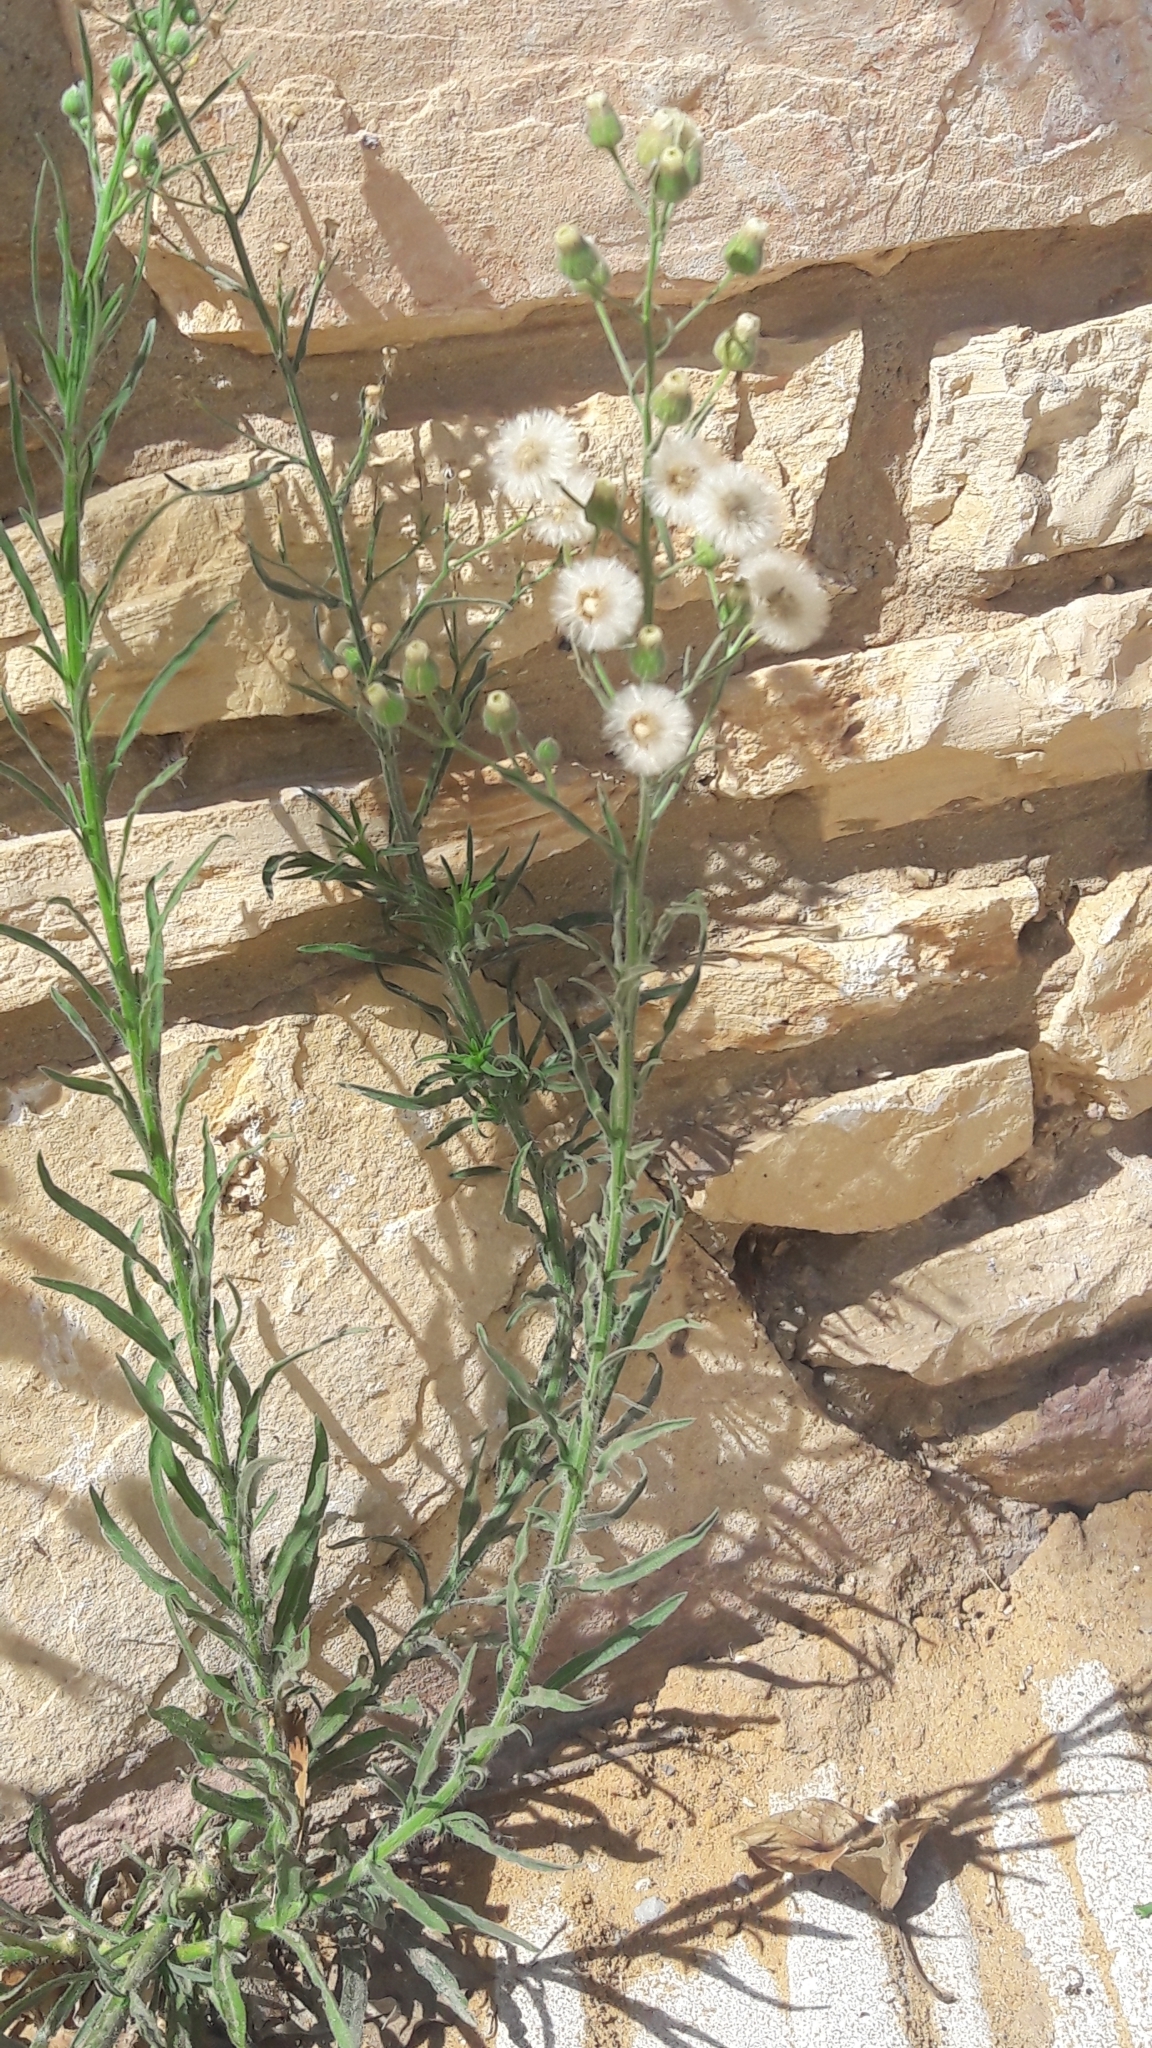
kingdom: Plantae
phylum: Tracheophyta
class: Magnoliopsida
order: Asterales
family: Asteraceae
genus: Erigeron
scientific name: Erigeron bonariensis
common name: Argentine fleabane
